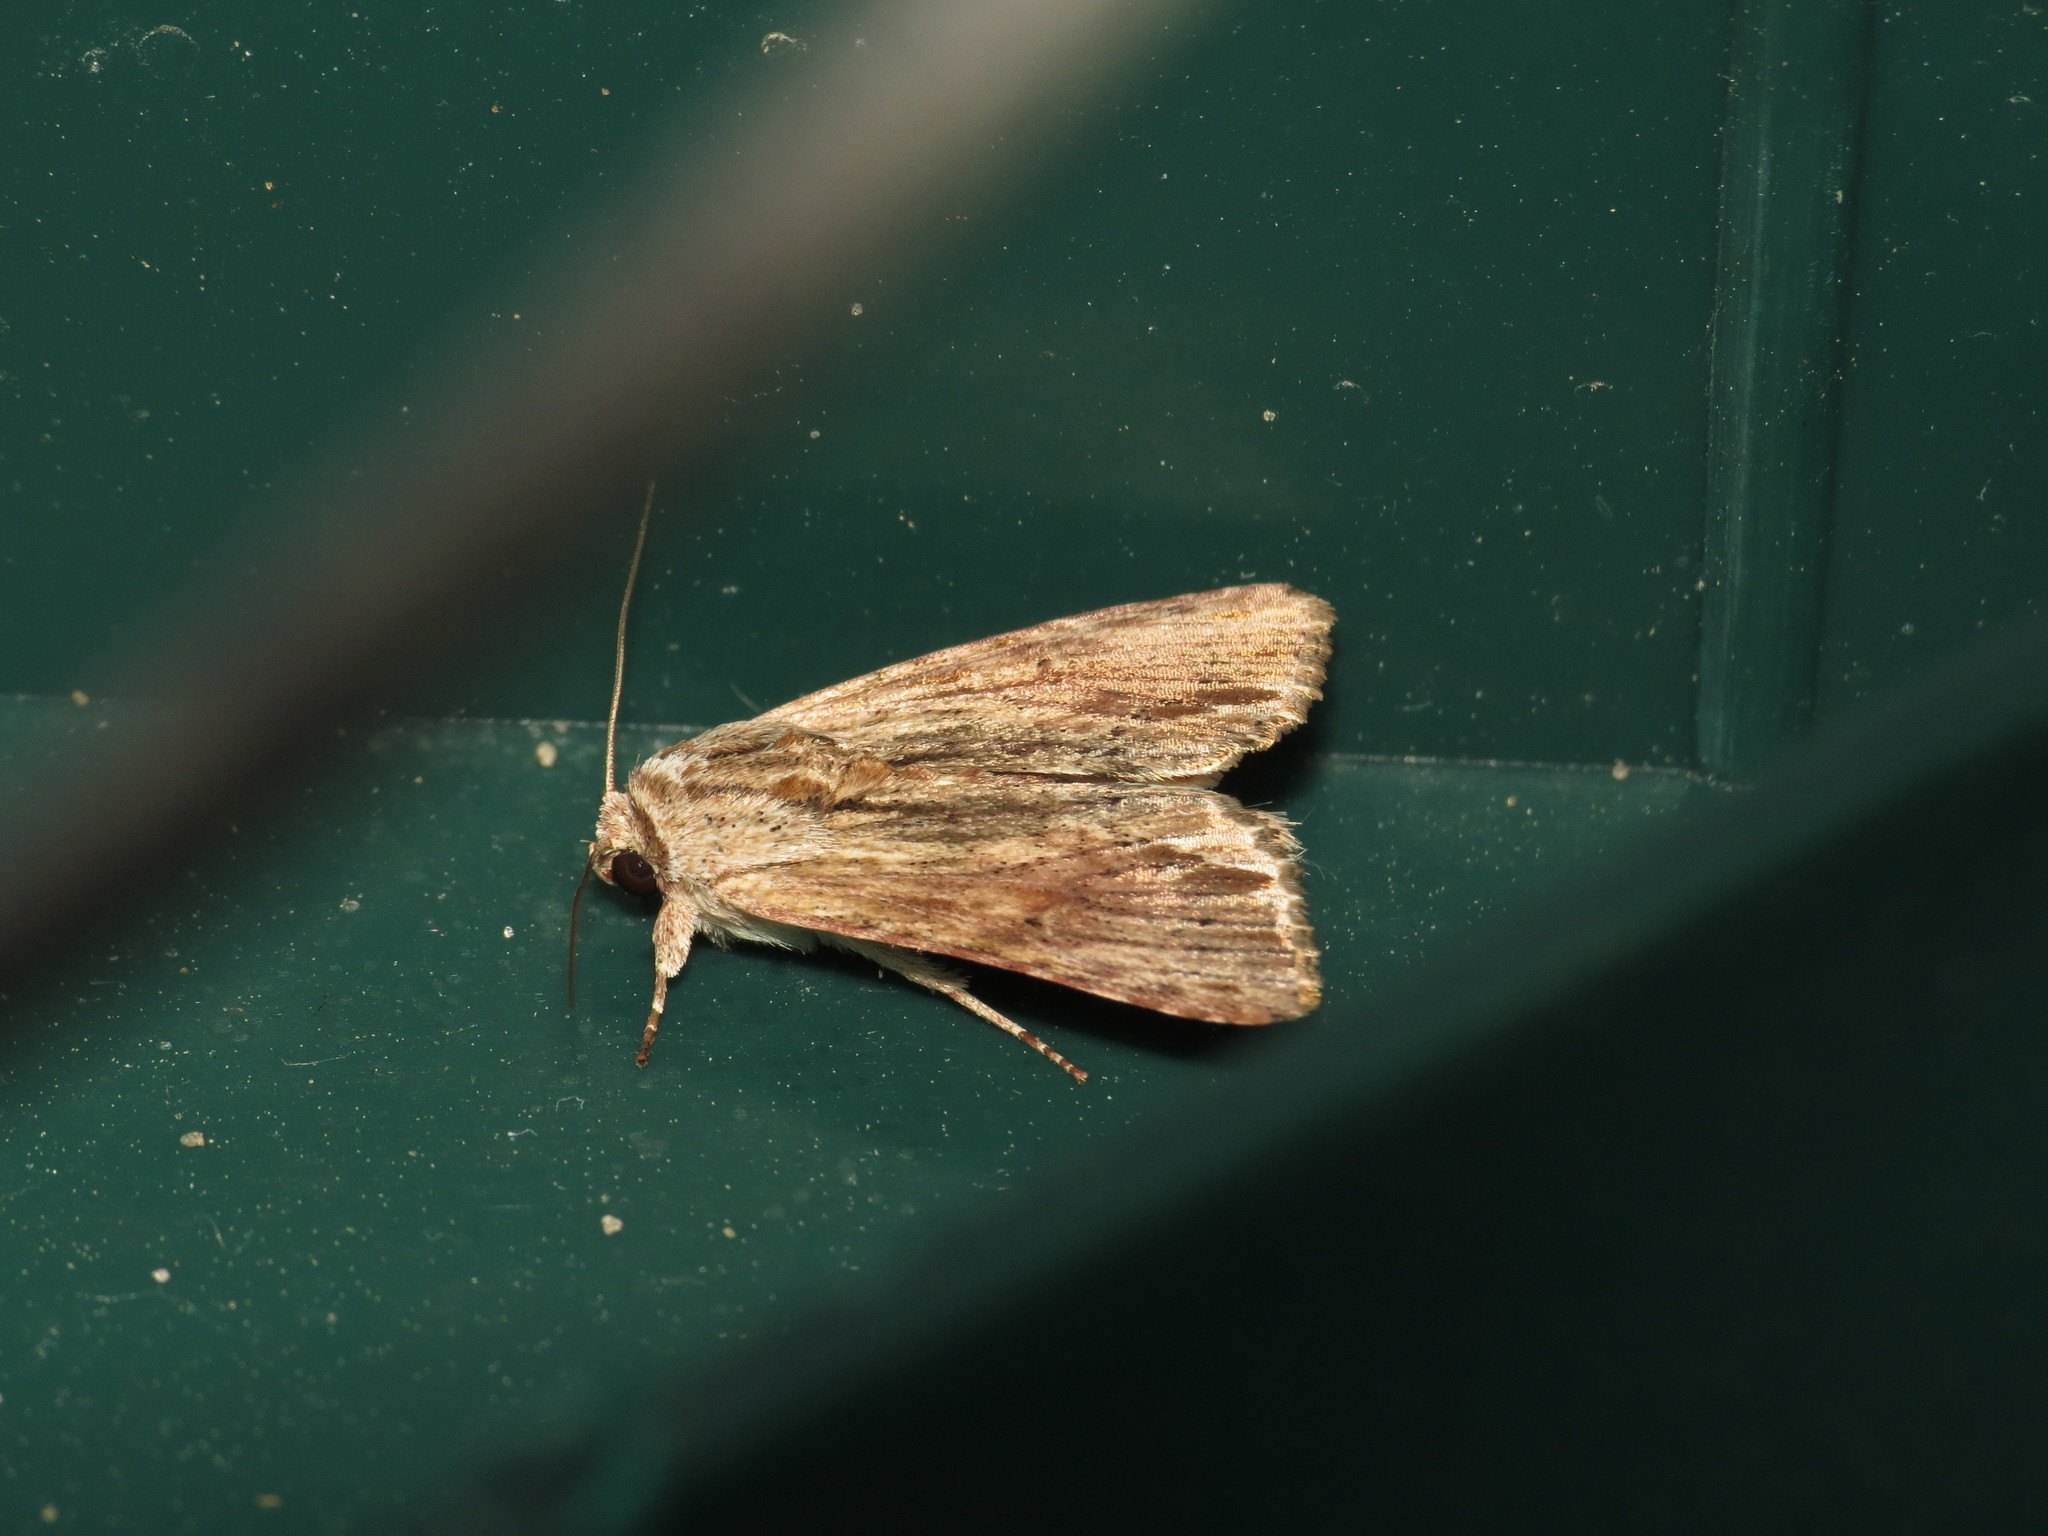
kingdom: Animalia
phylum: Arthropoda
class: Insecta
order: Lepidoptera
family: Noctuidae
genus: Spodoptera
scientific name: Spodoptera eridania
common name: Southern army worm
